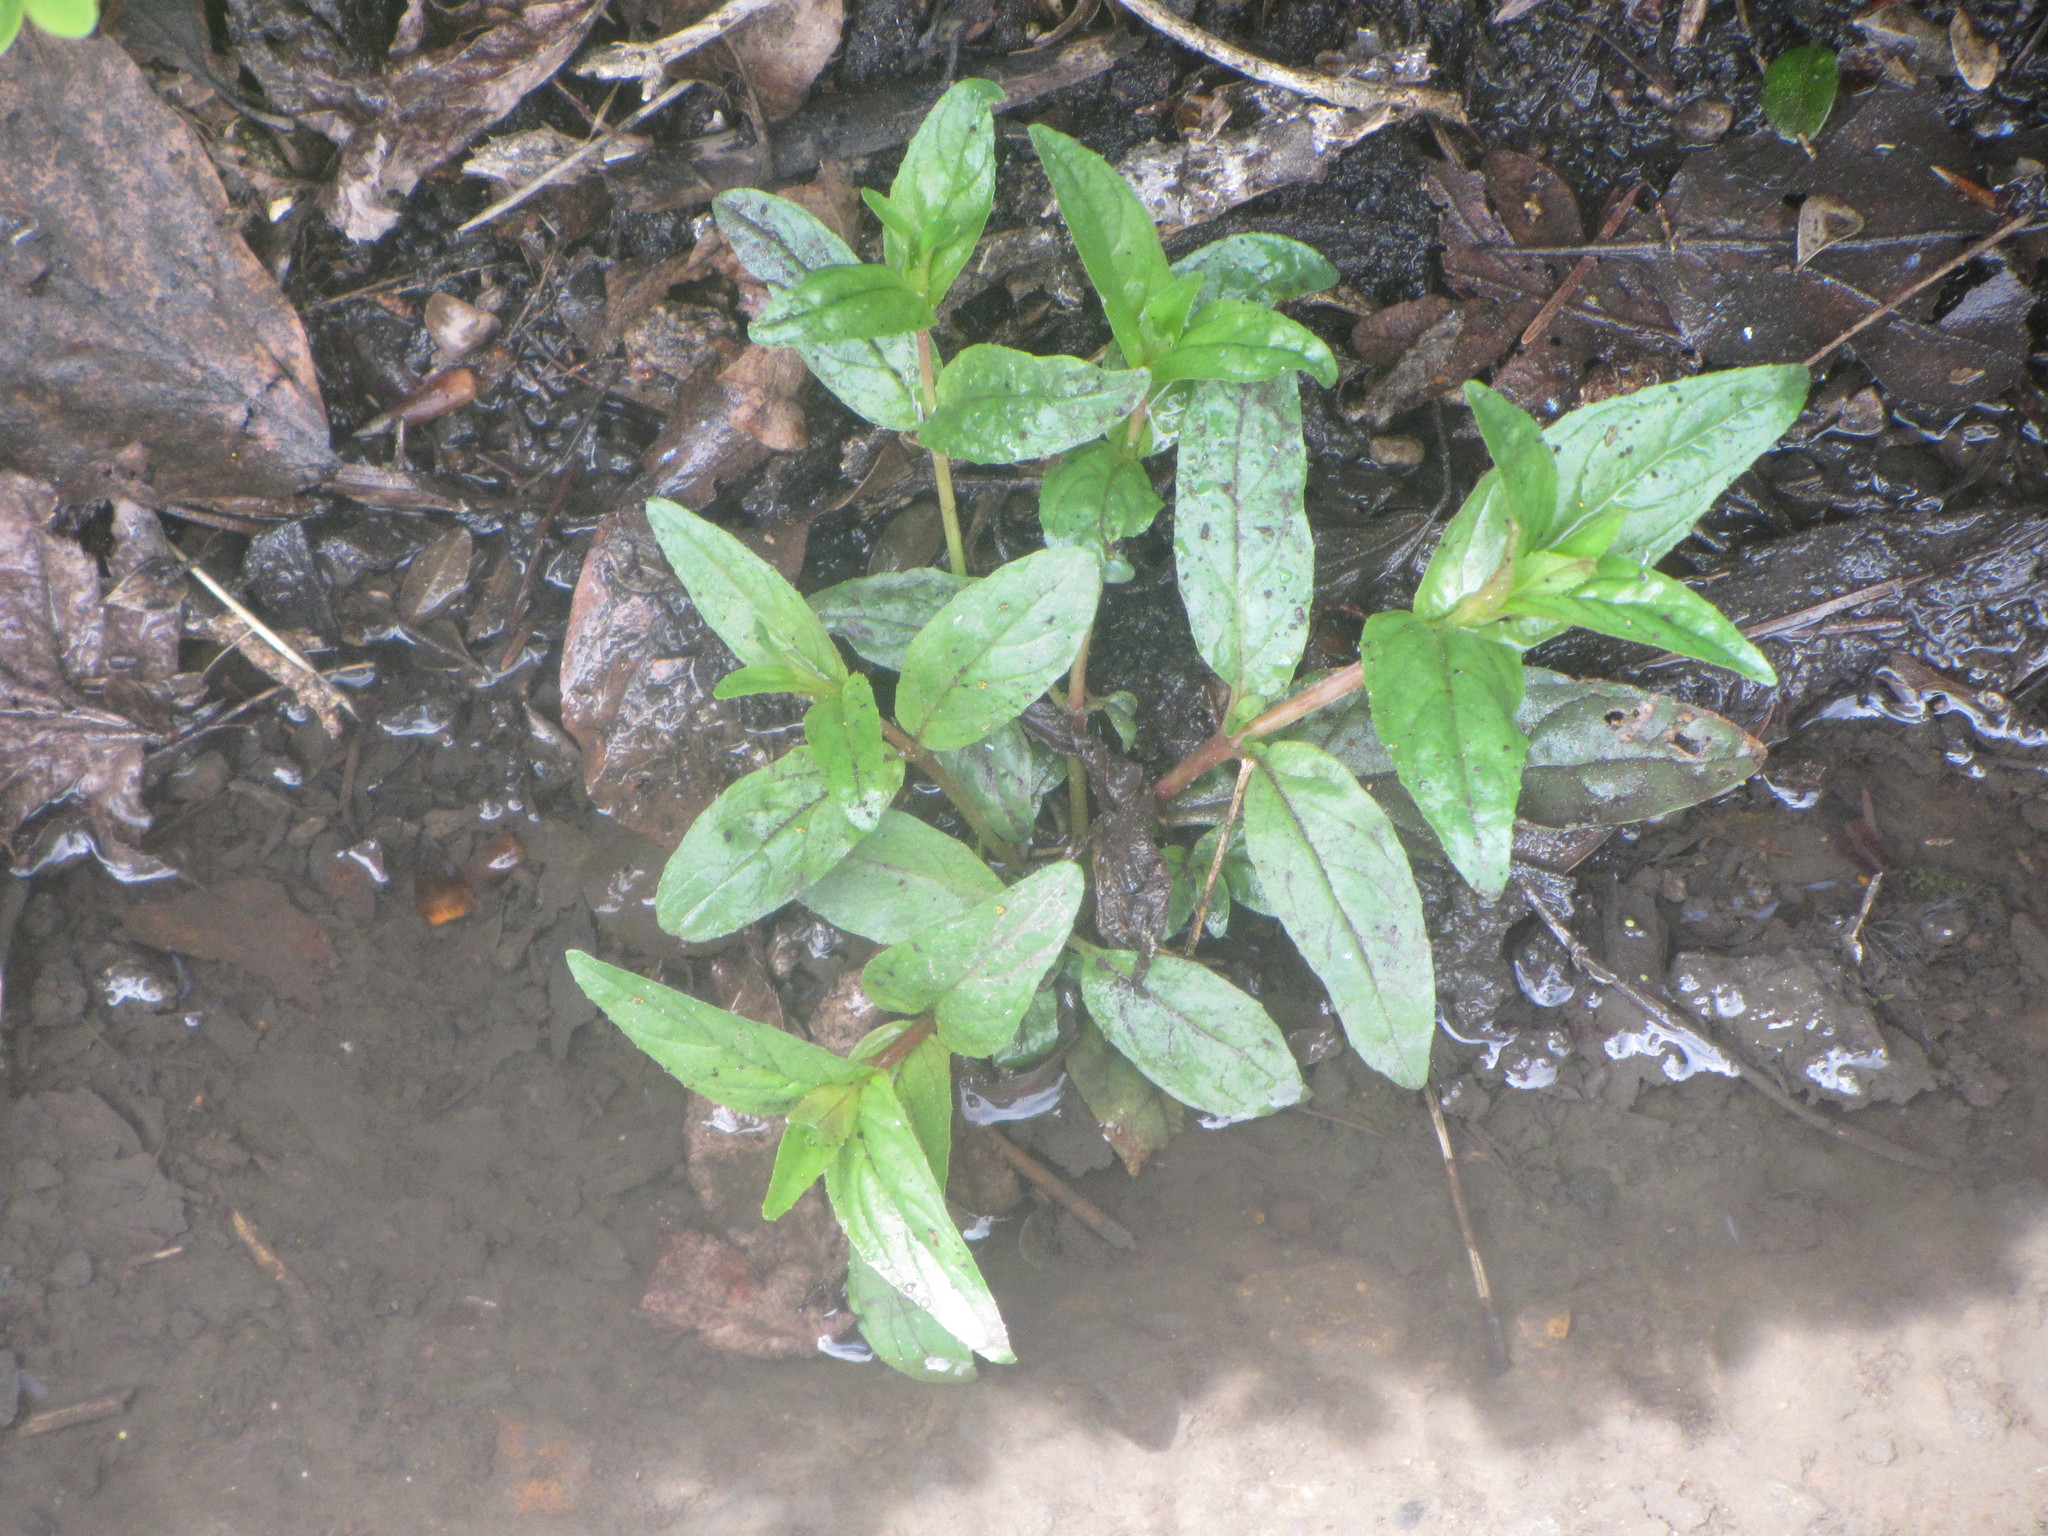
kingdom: Plantae
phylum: Tracheophyta
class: Magnoliopsida
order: Myrtales
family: Onagraceae
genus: Epilobium
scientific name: Epilobium ciliatum
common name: American willowherb
